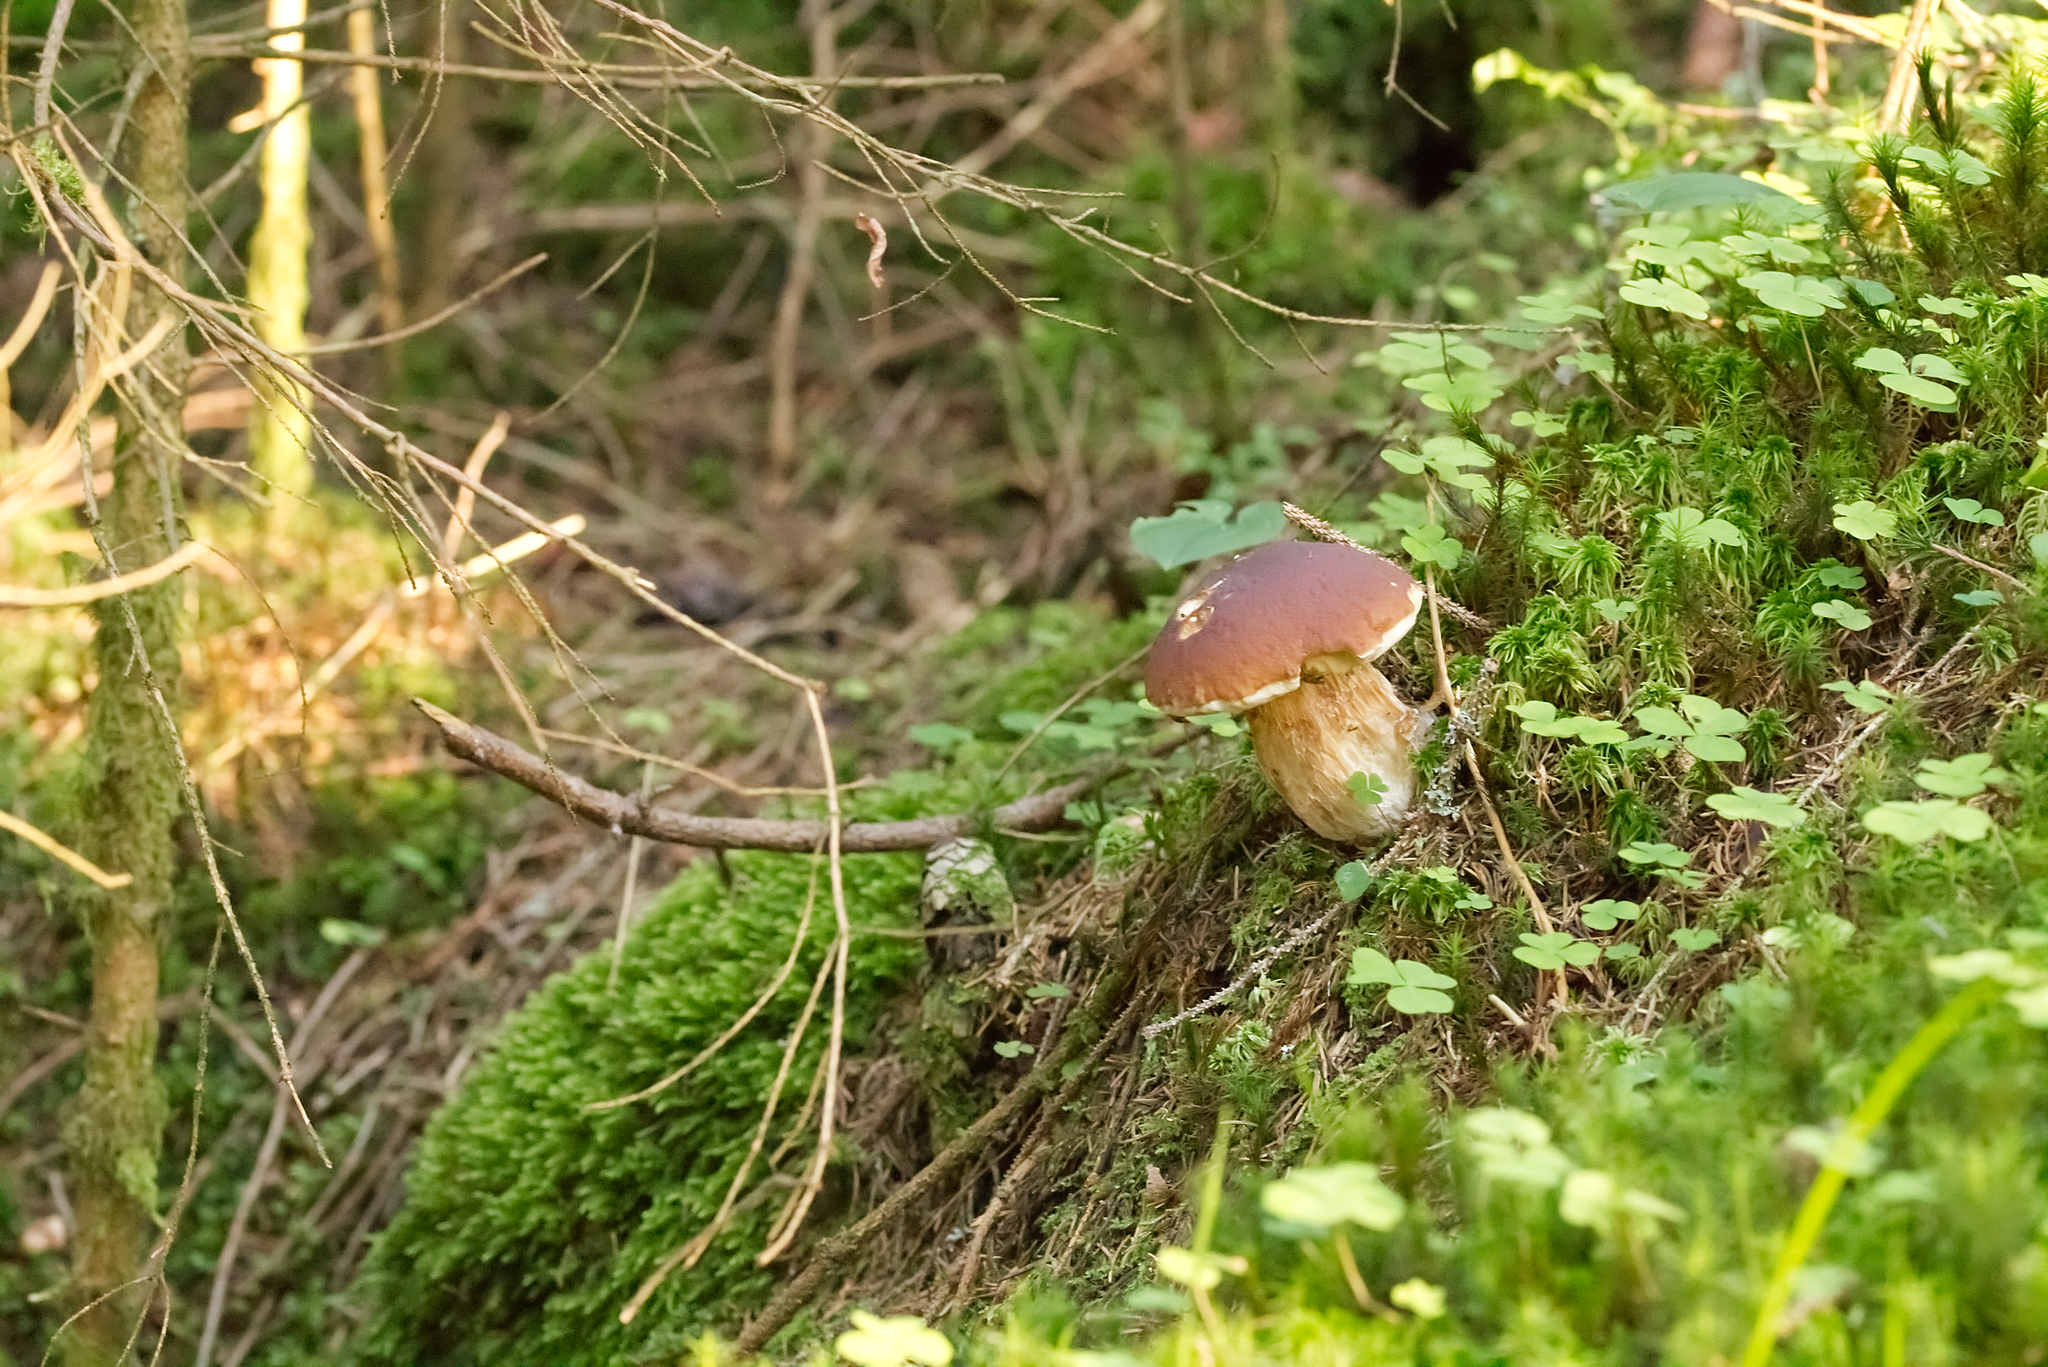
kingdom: Fungi
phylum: Basidiomycota
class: Agaricomycetes
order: Boletales
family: Boletaceae
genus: Boletus
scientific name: Boletus edulis
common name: Cep
